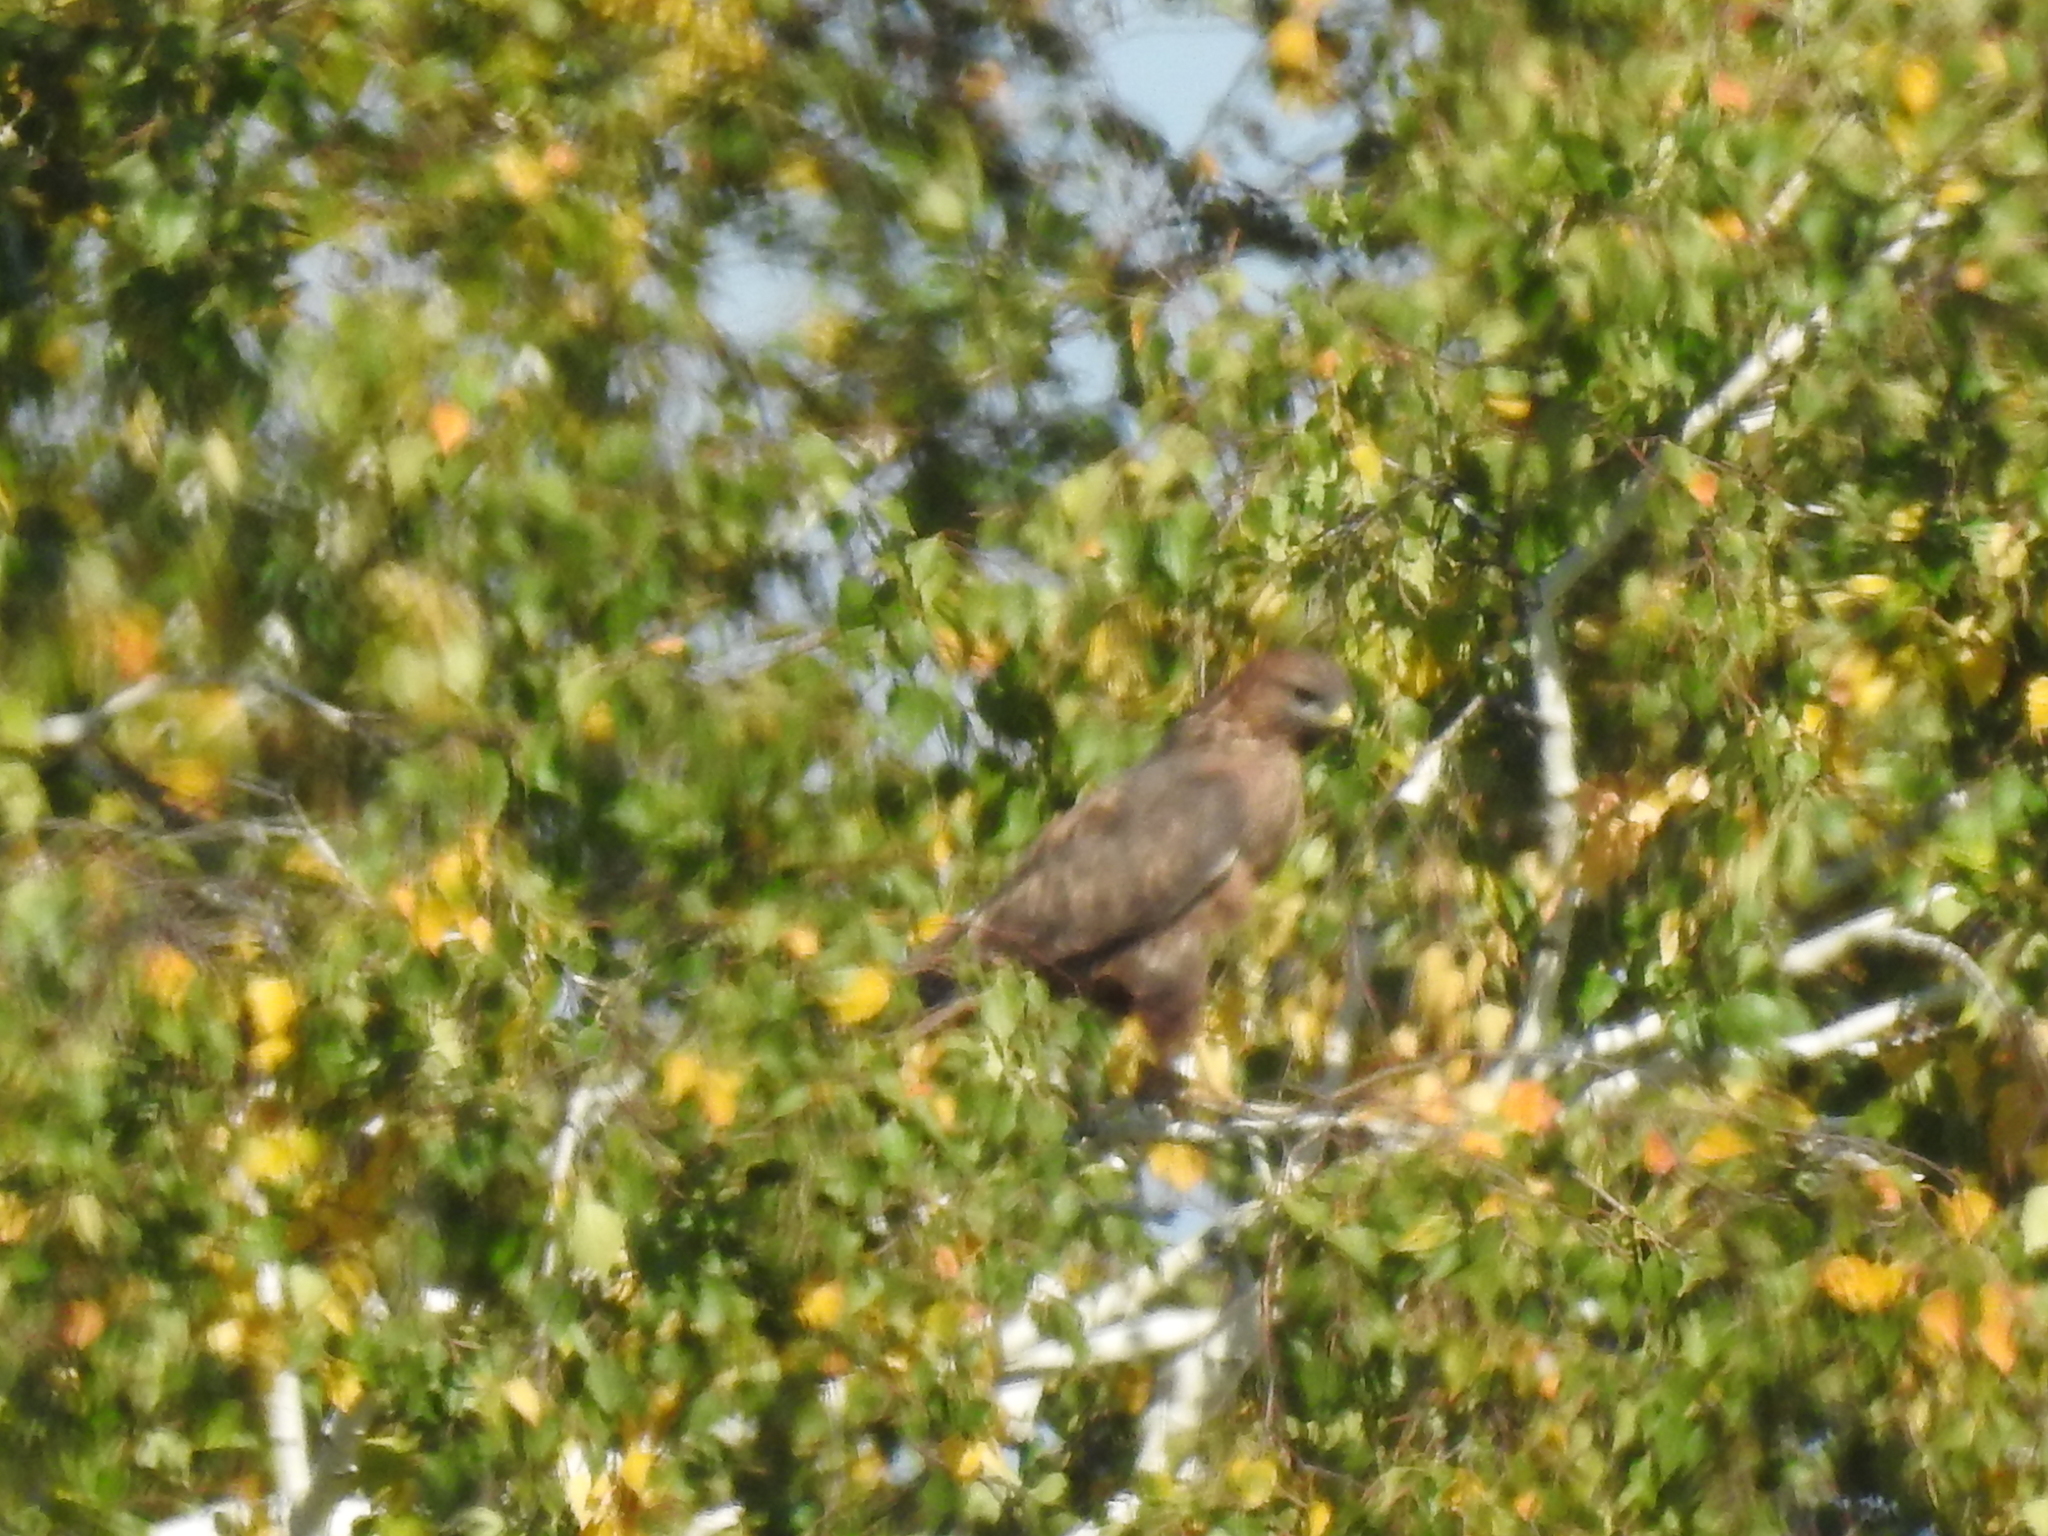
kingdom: Animalia
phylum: Chordata
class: Aves
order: Accipitriformes
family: Accipitridae
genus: Buteo
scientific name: Buteo buteo
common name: Common buzzard
